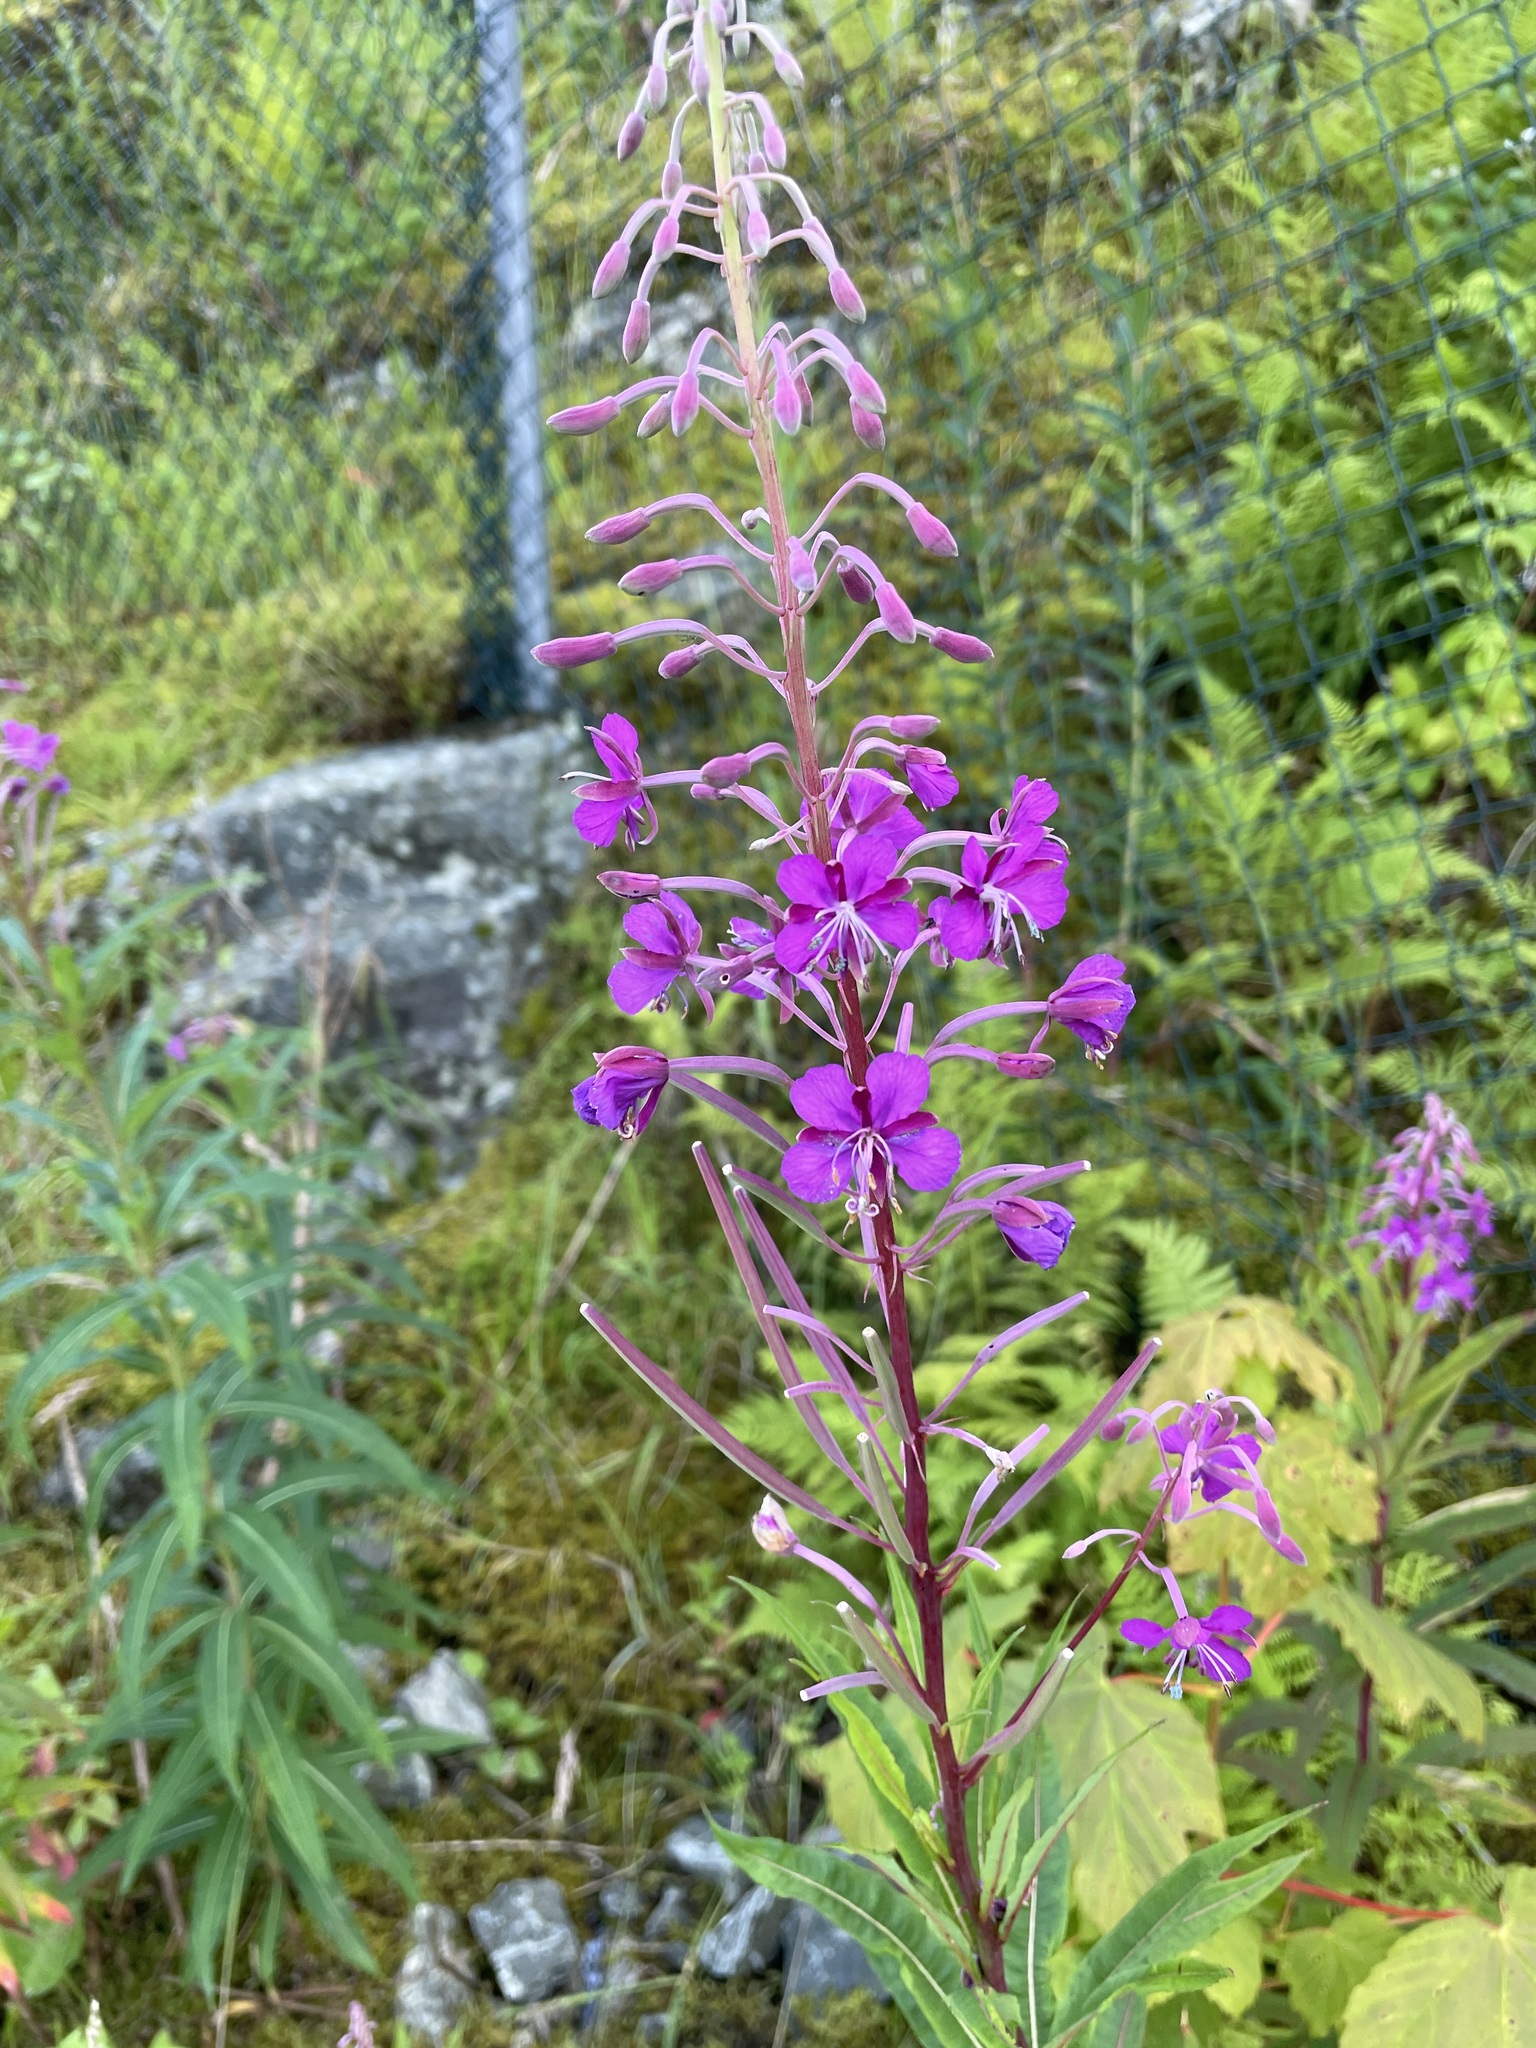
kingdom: Plantae
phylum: Tracheophyta
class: Magnoliopsida
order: Myrtales
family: Onagraceae
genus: Chamaenerion
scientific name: Chamaenerion angustifolium
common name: Fireweed
